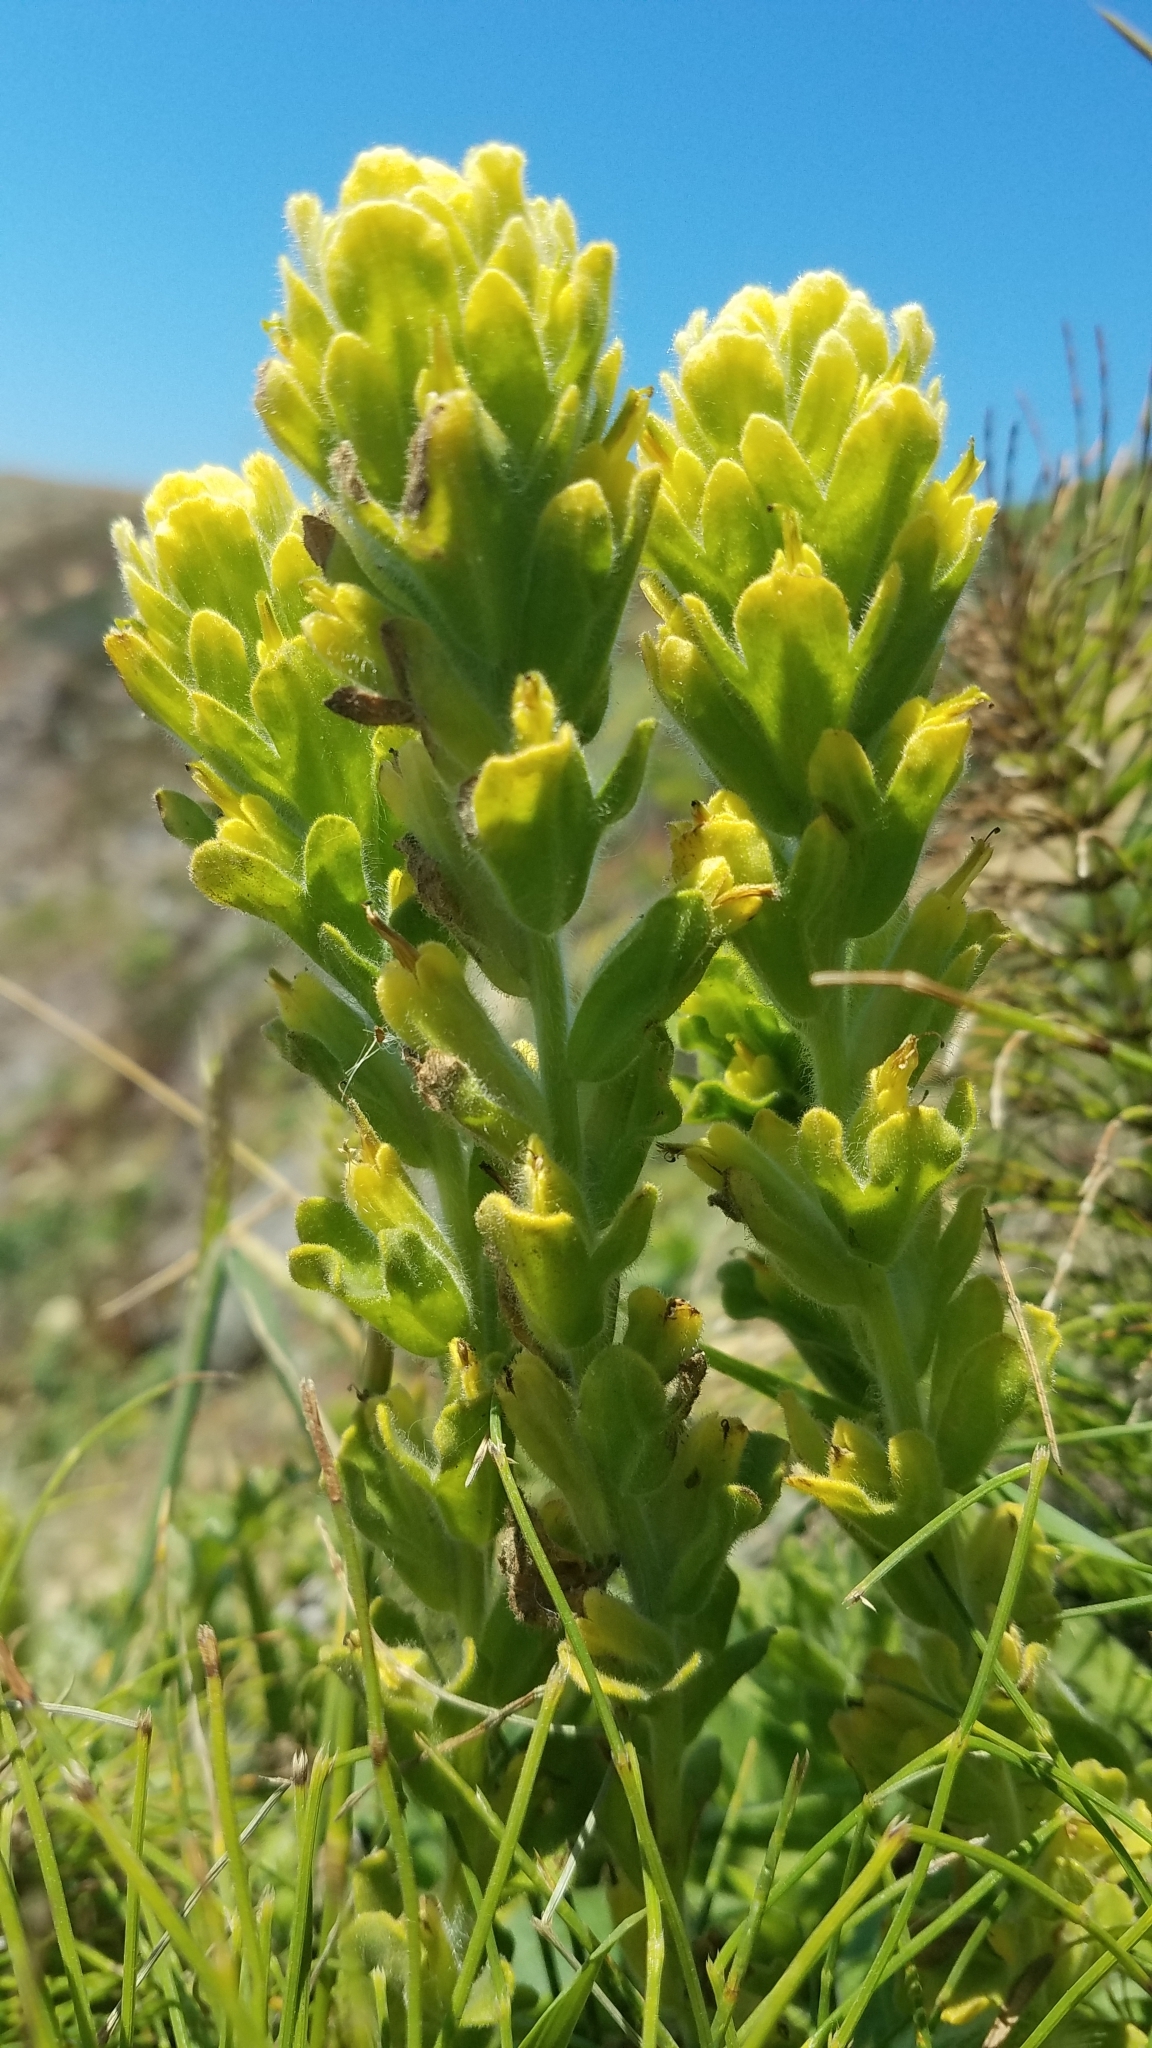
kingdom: Plantae
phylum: Tracheophyta
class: Magnoliopsida
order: Lamiales
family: Orobanchaceae
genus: Castilleja
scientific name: Castilleja wightii
